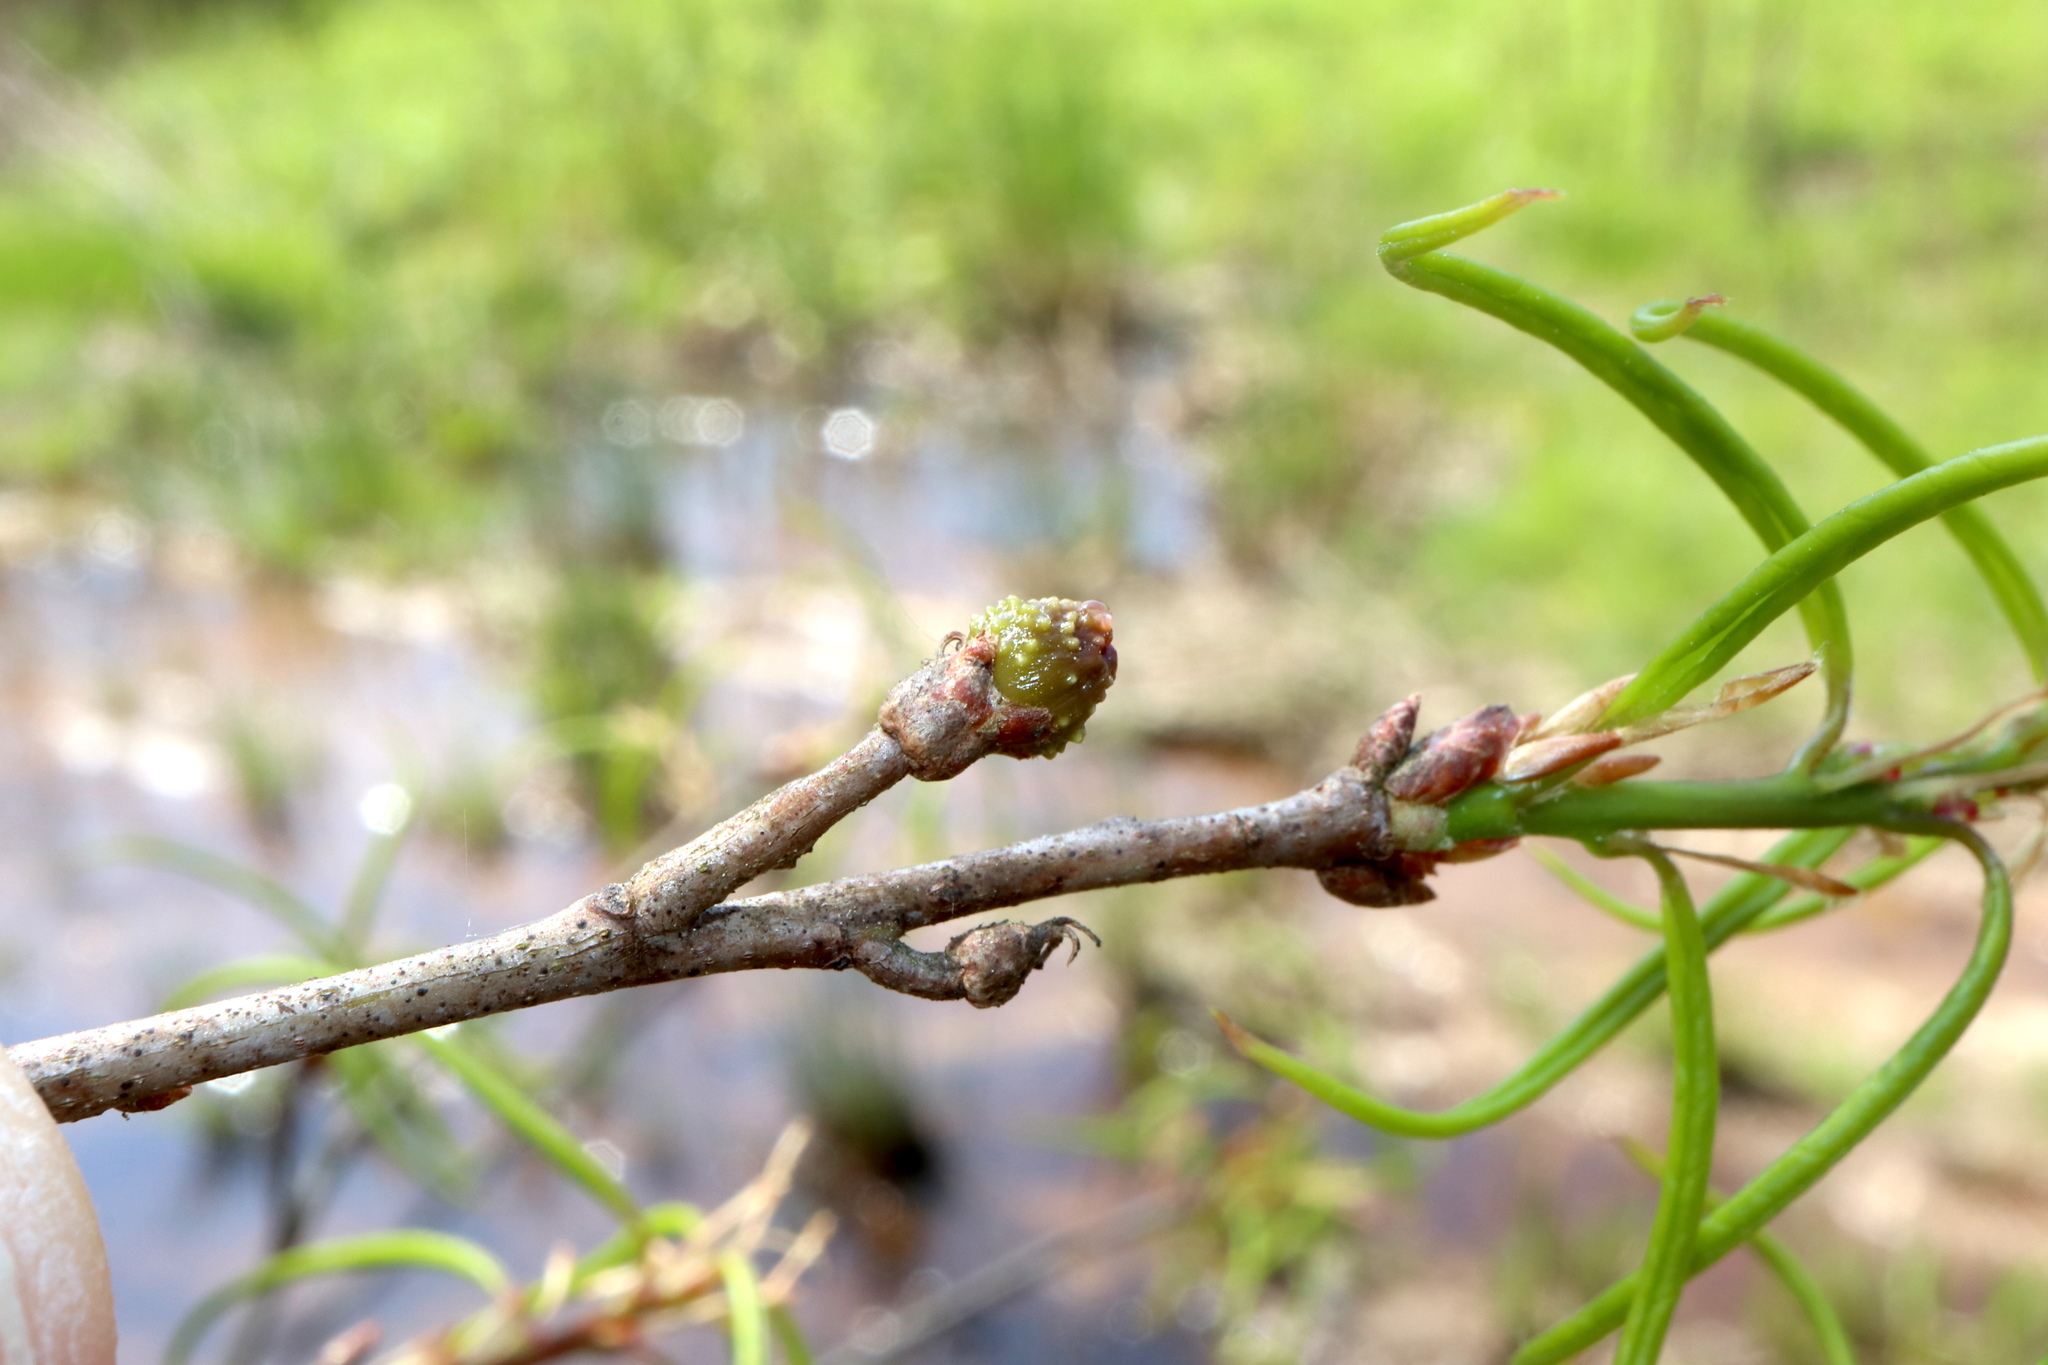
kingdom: Animalia
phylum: Arthropoda
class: Insecta
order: Hymenoptera
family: Cynipidae
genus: Callirhytis
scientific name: Callirhytis
